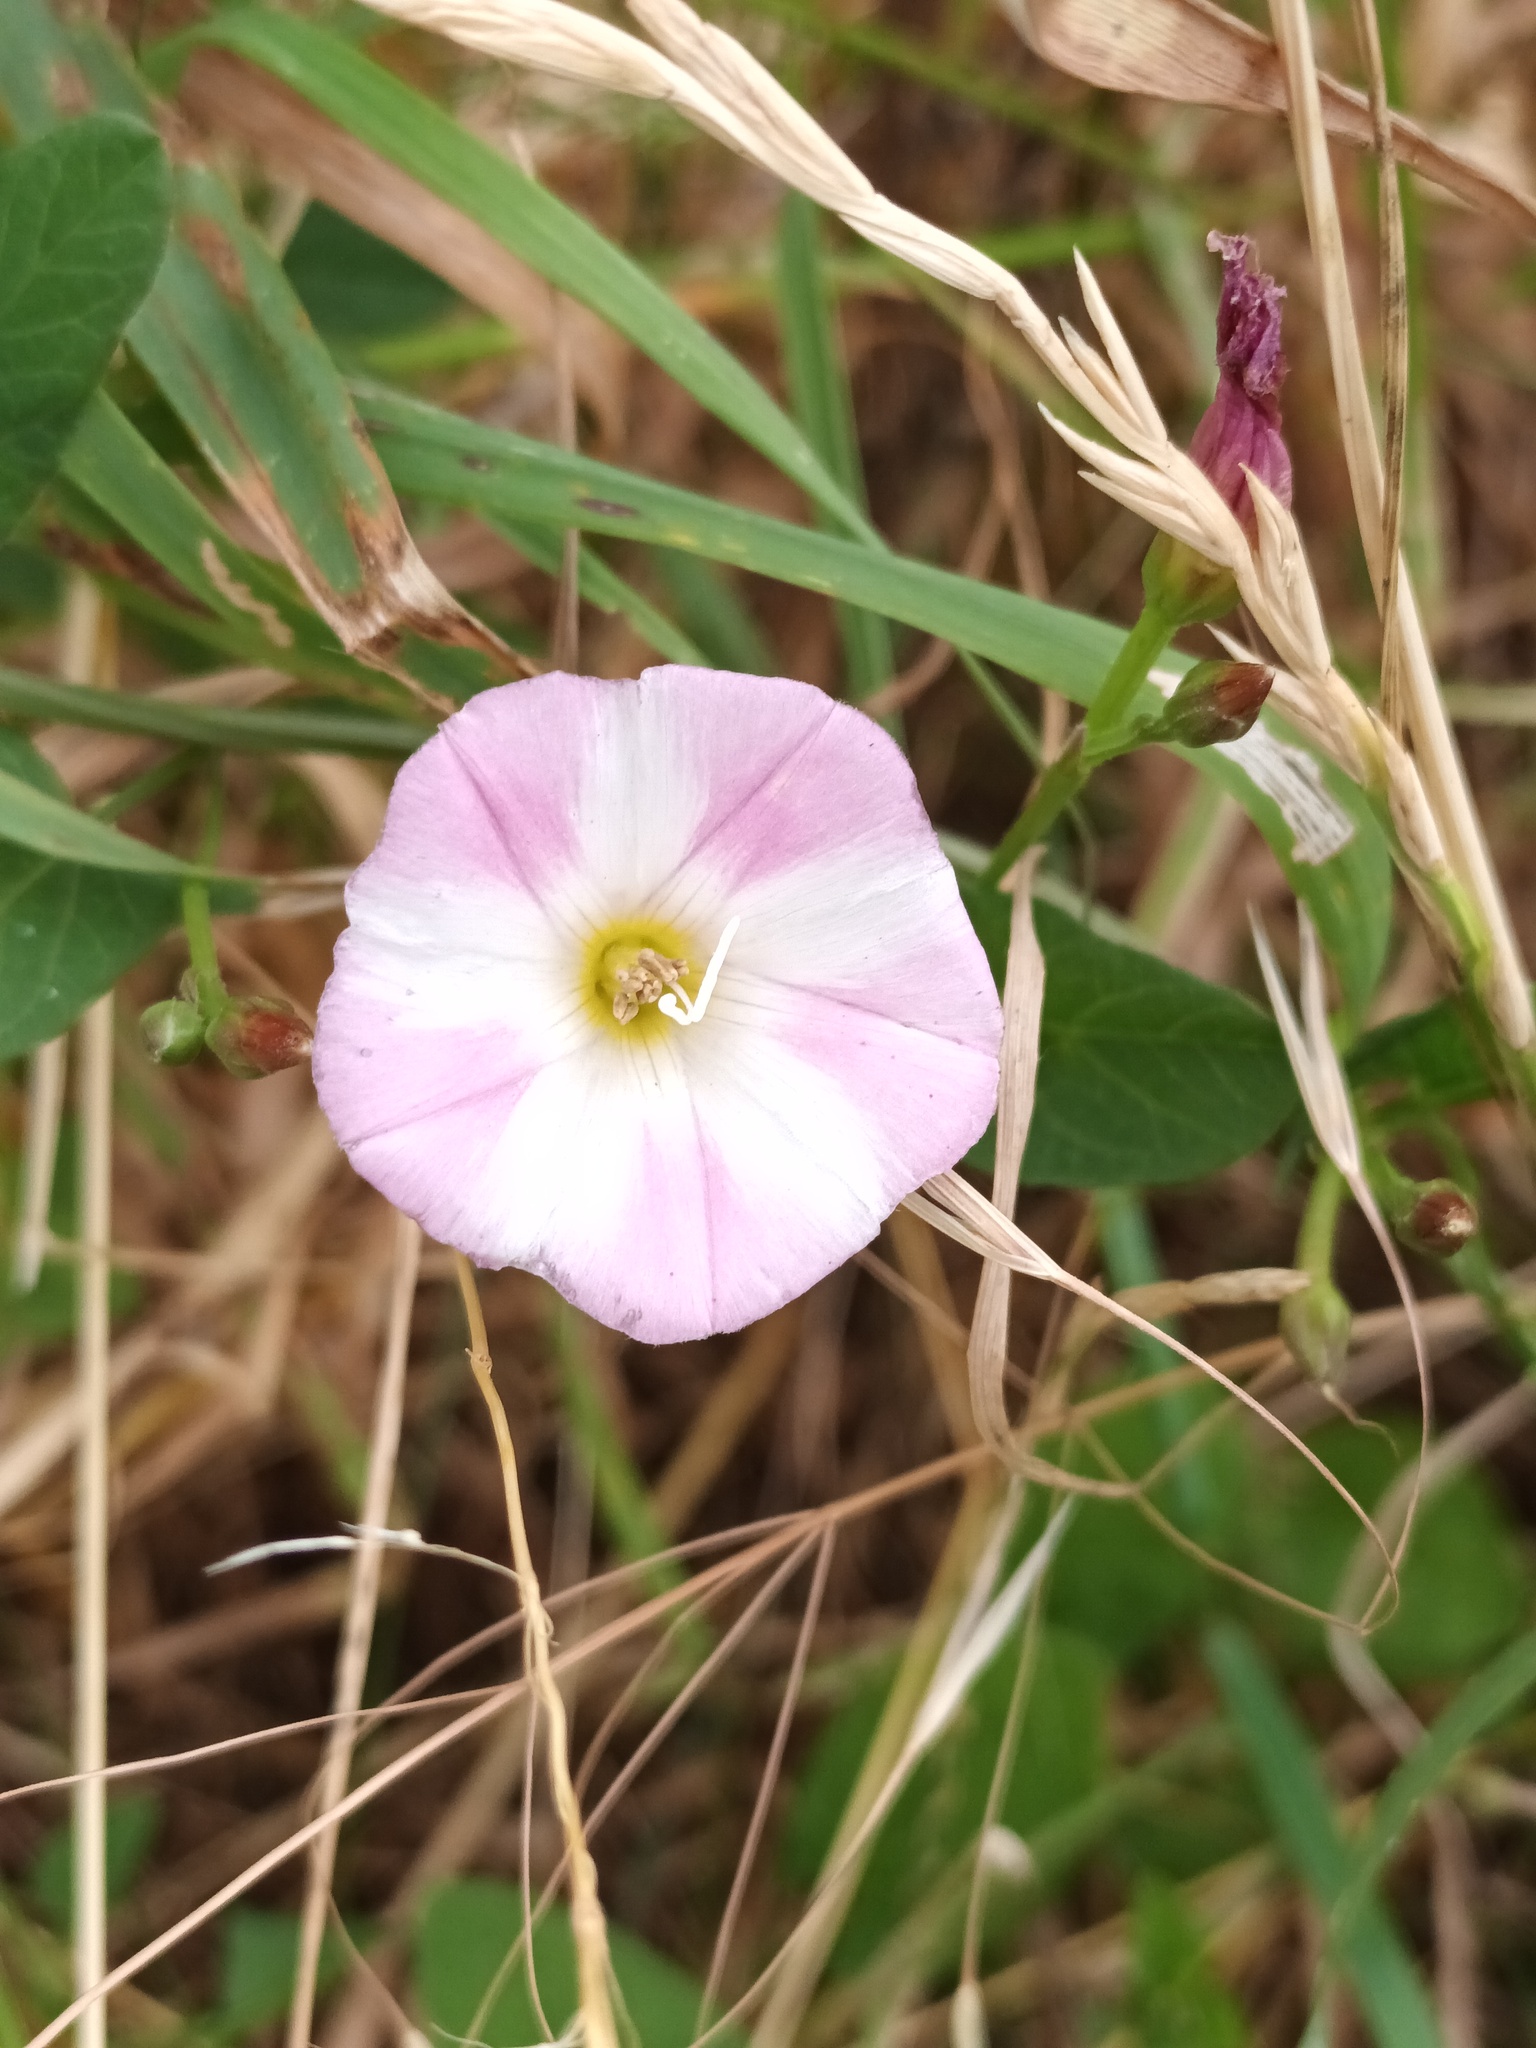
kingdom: Plantae
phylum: Tracheophyta
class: Magnoliopsida
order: Solanales
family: Convolvulaceae
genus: Convolvulus
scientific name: Convolvulus arvensis
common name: Field bindweed
